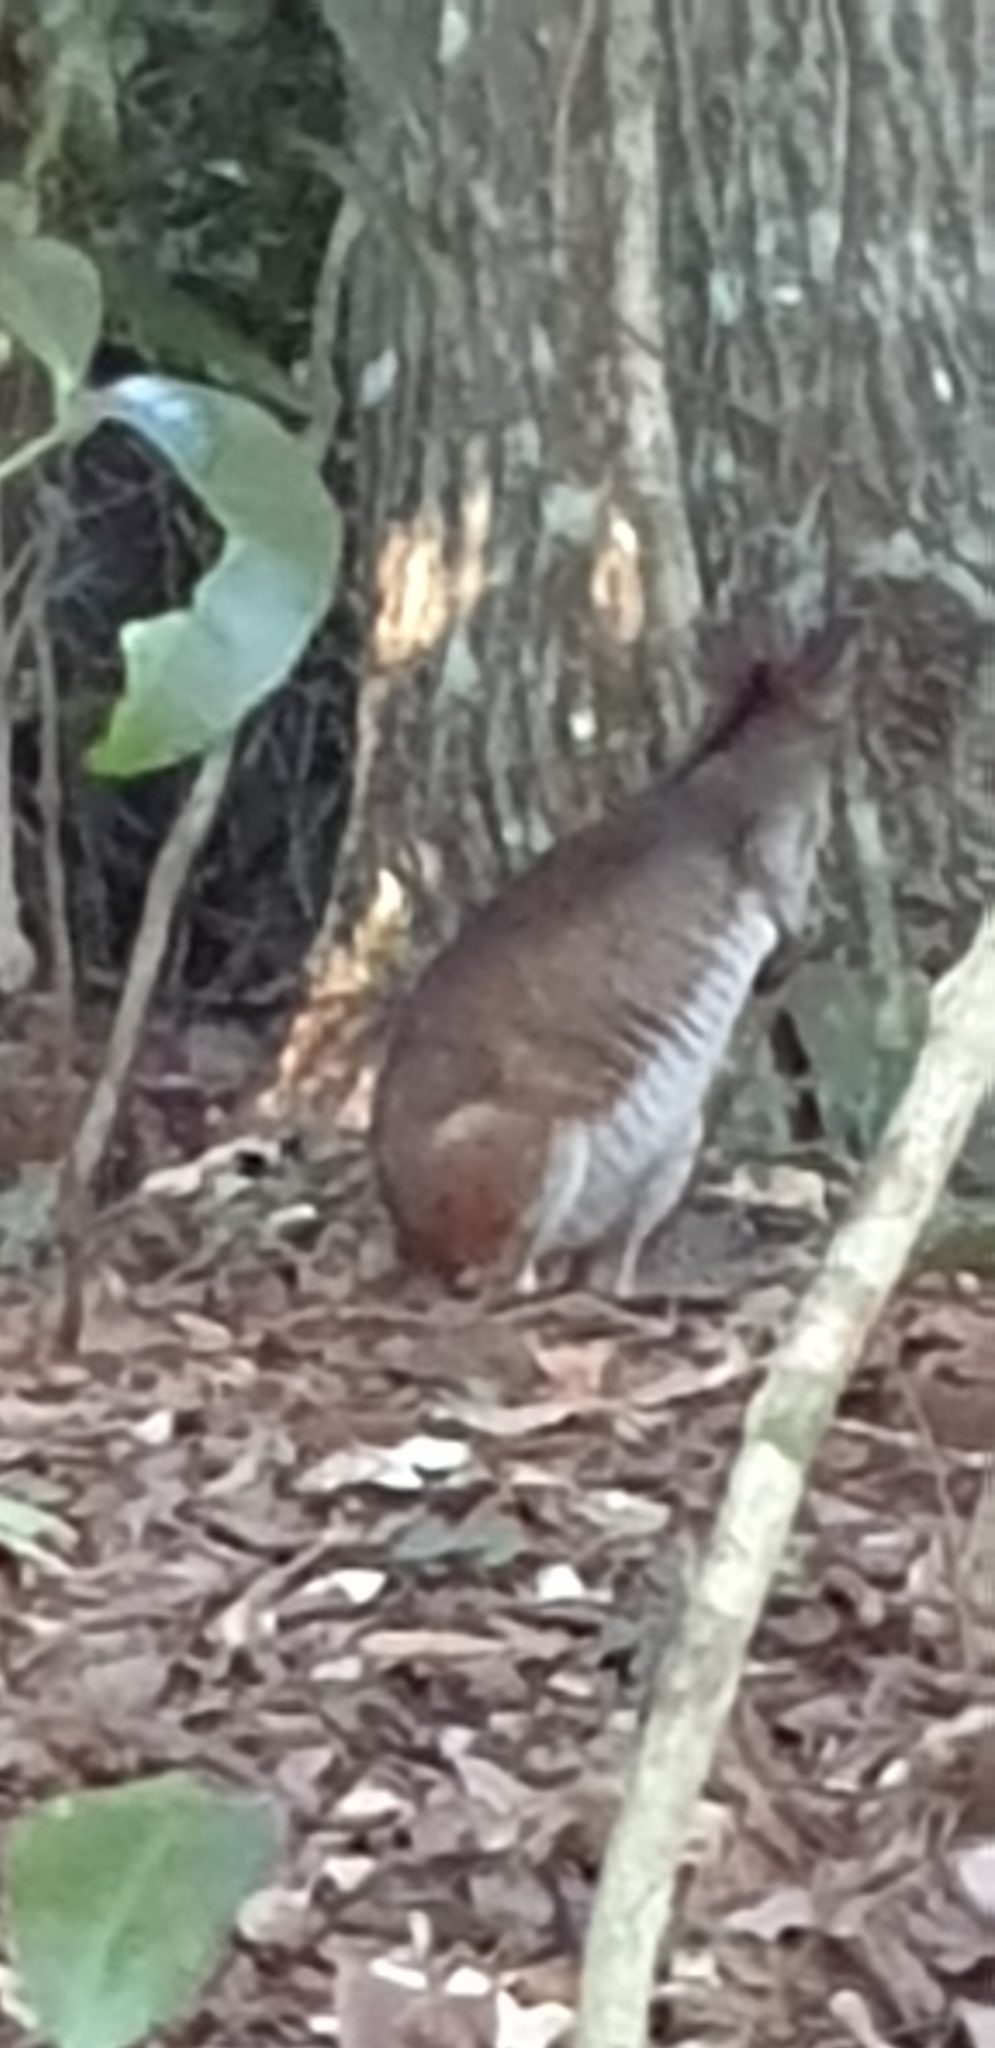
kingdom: Animalia
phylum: Chordata
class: Mammalia
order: Diprotodontia
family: Macropodidae
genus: Thylogale
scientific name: Thylogale stigmatica
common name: Red-legged pademelon
